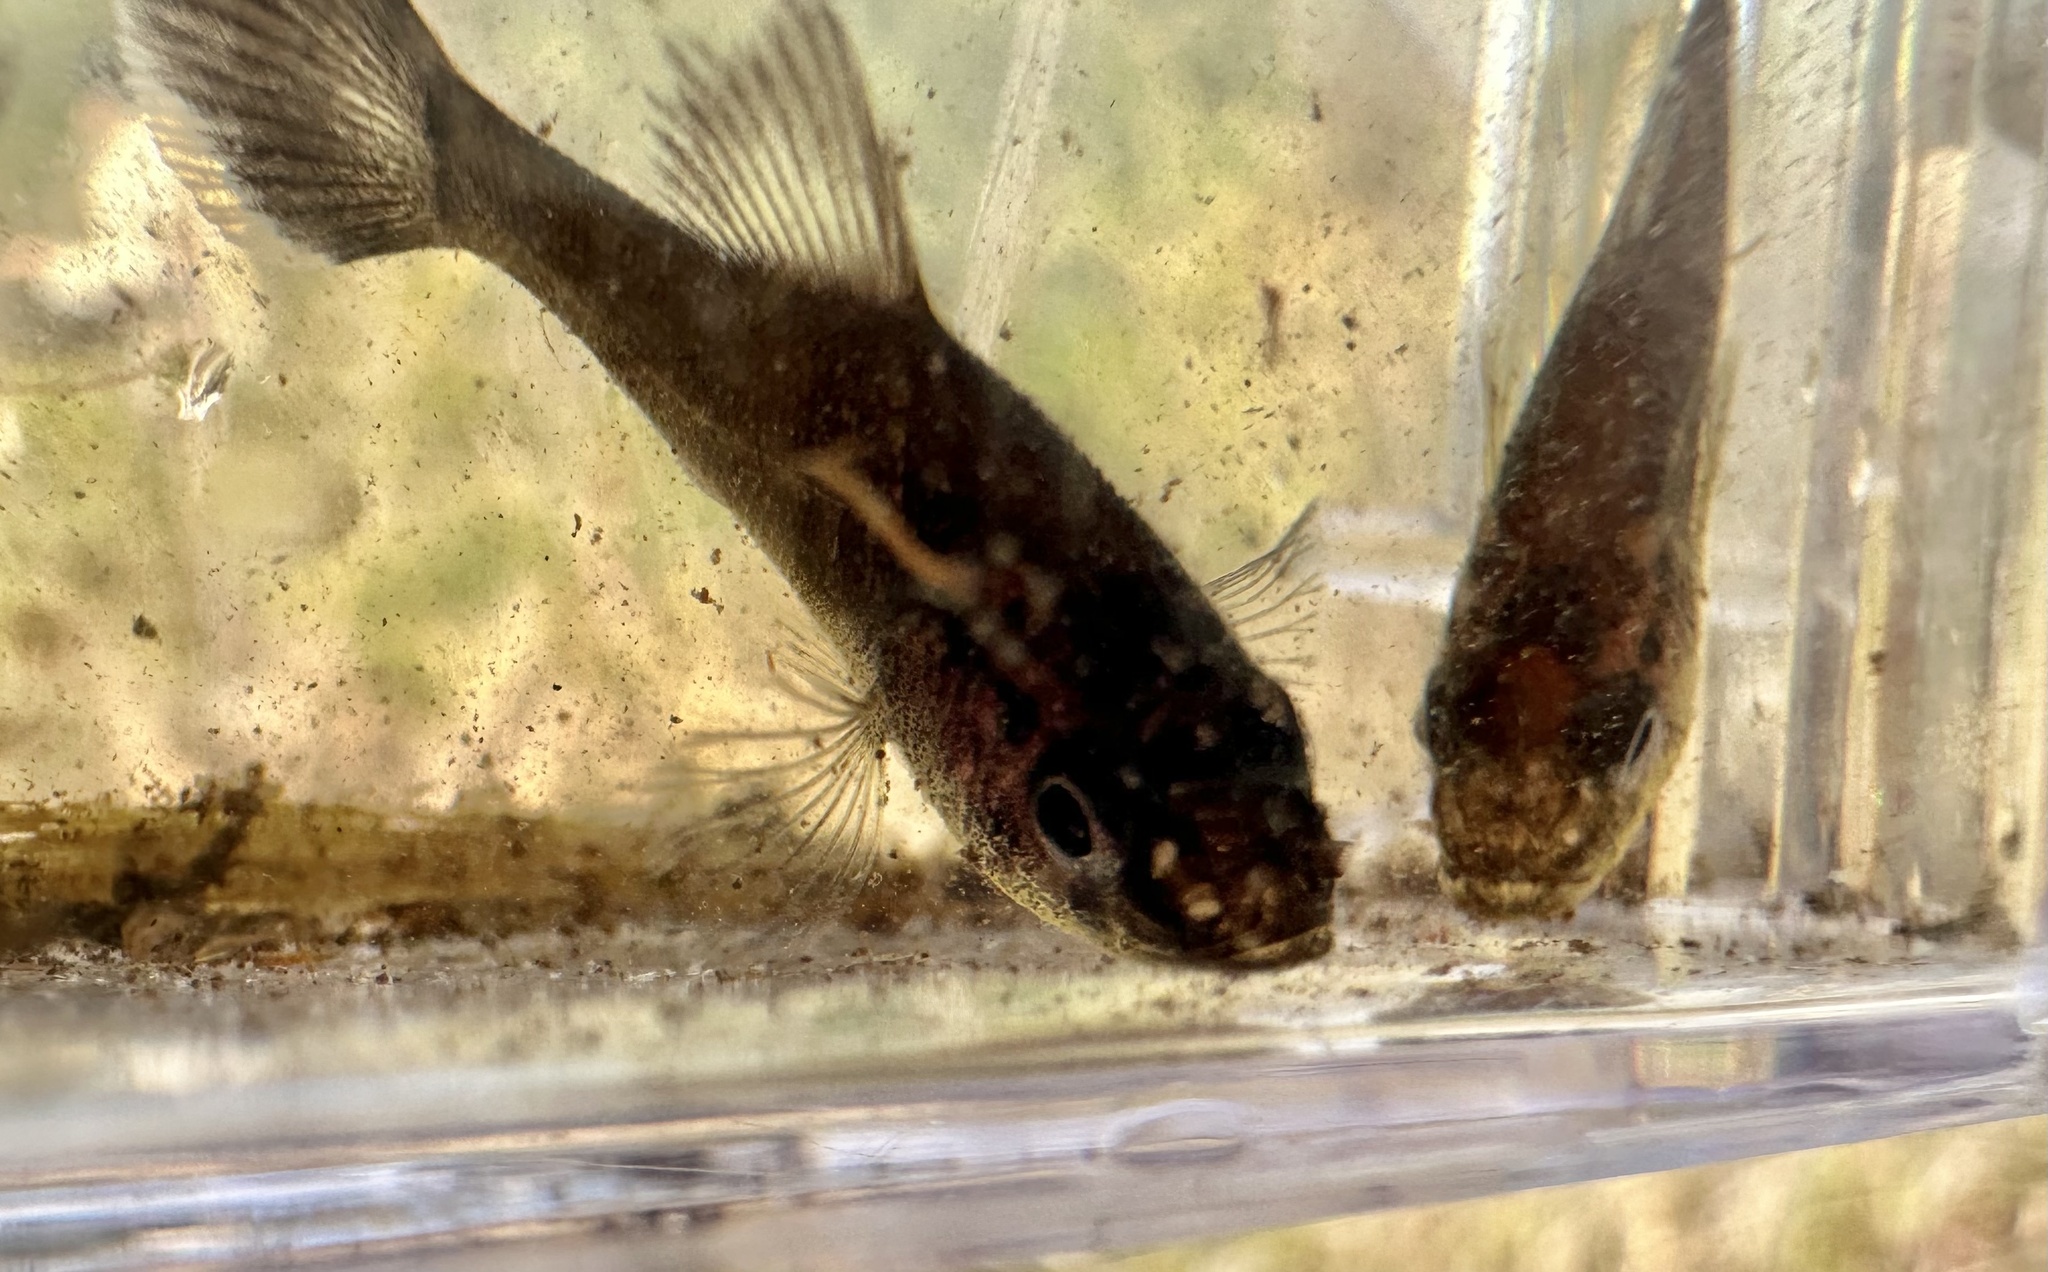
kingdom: Animalia
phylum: Chordata
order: Percopsiformes
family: Aphredoderidae
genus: Aphredoderus
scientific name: Aphredoderus
